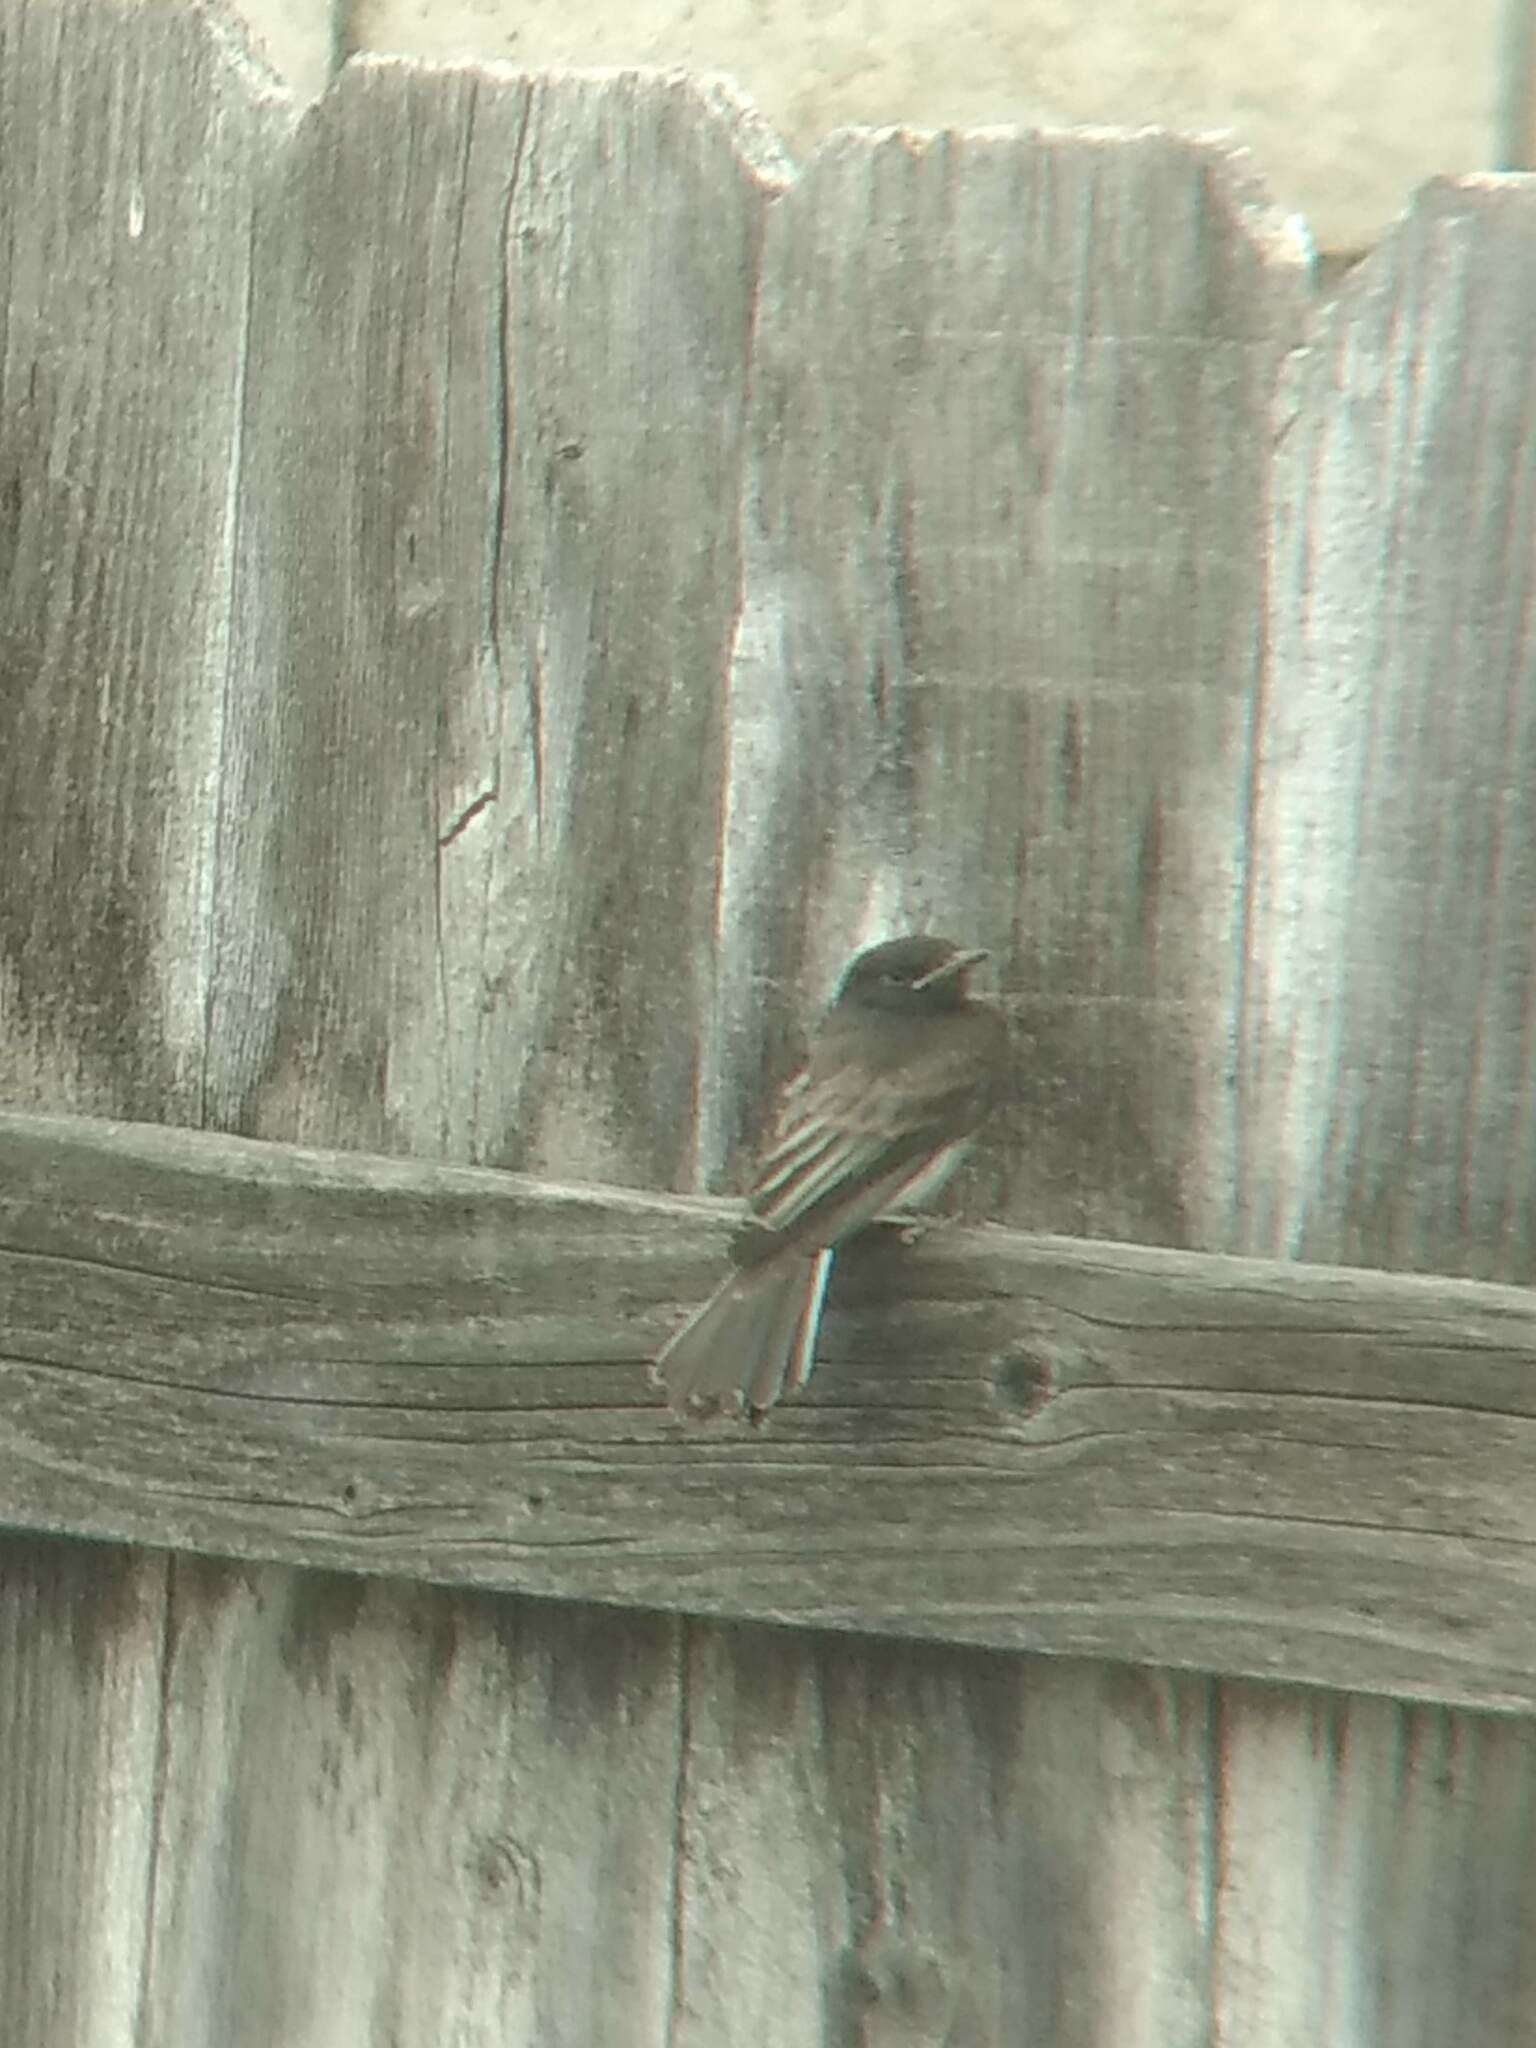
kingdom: Animalia
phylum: Chordata
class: Aves
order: Passeriformes
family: Tyrannidae
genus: Sayornis
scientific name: Sayornis nigricans
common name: Black phoebe
